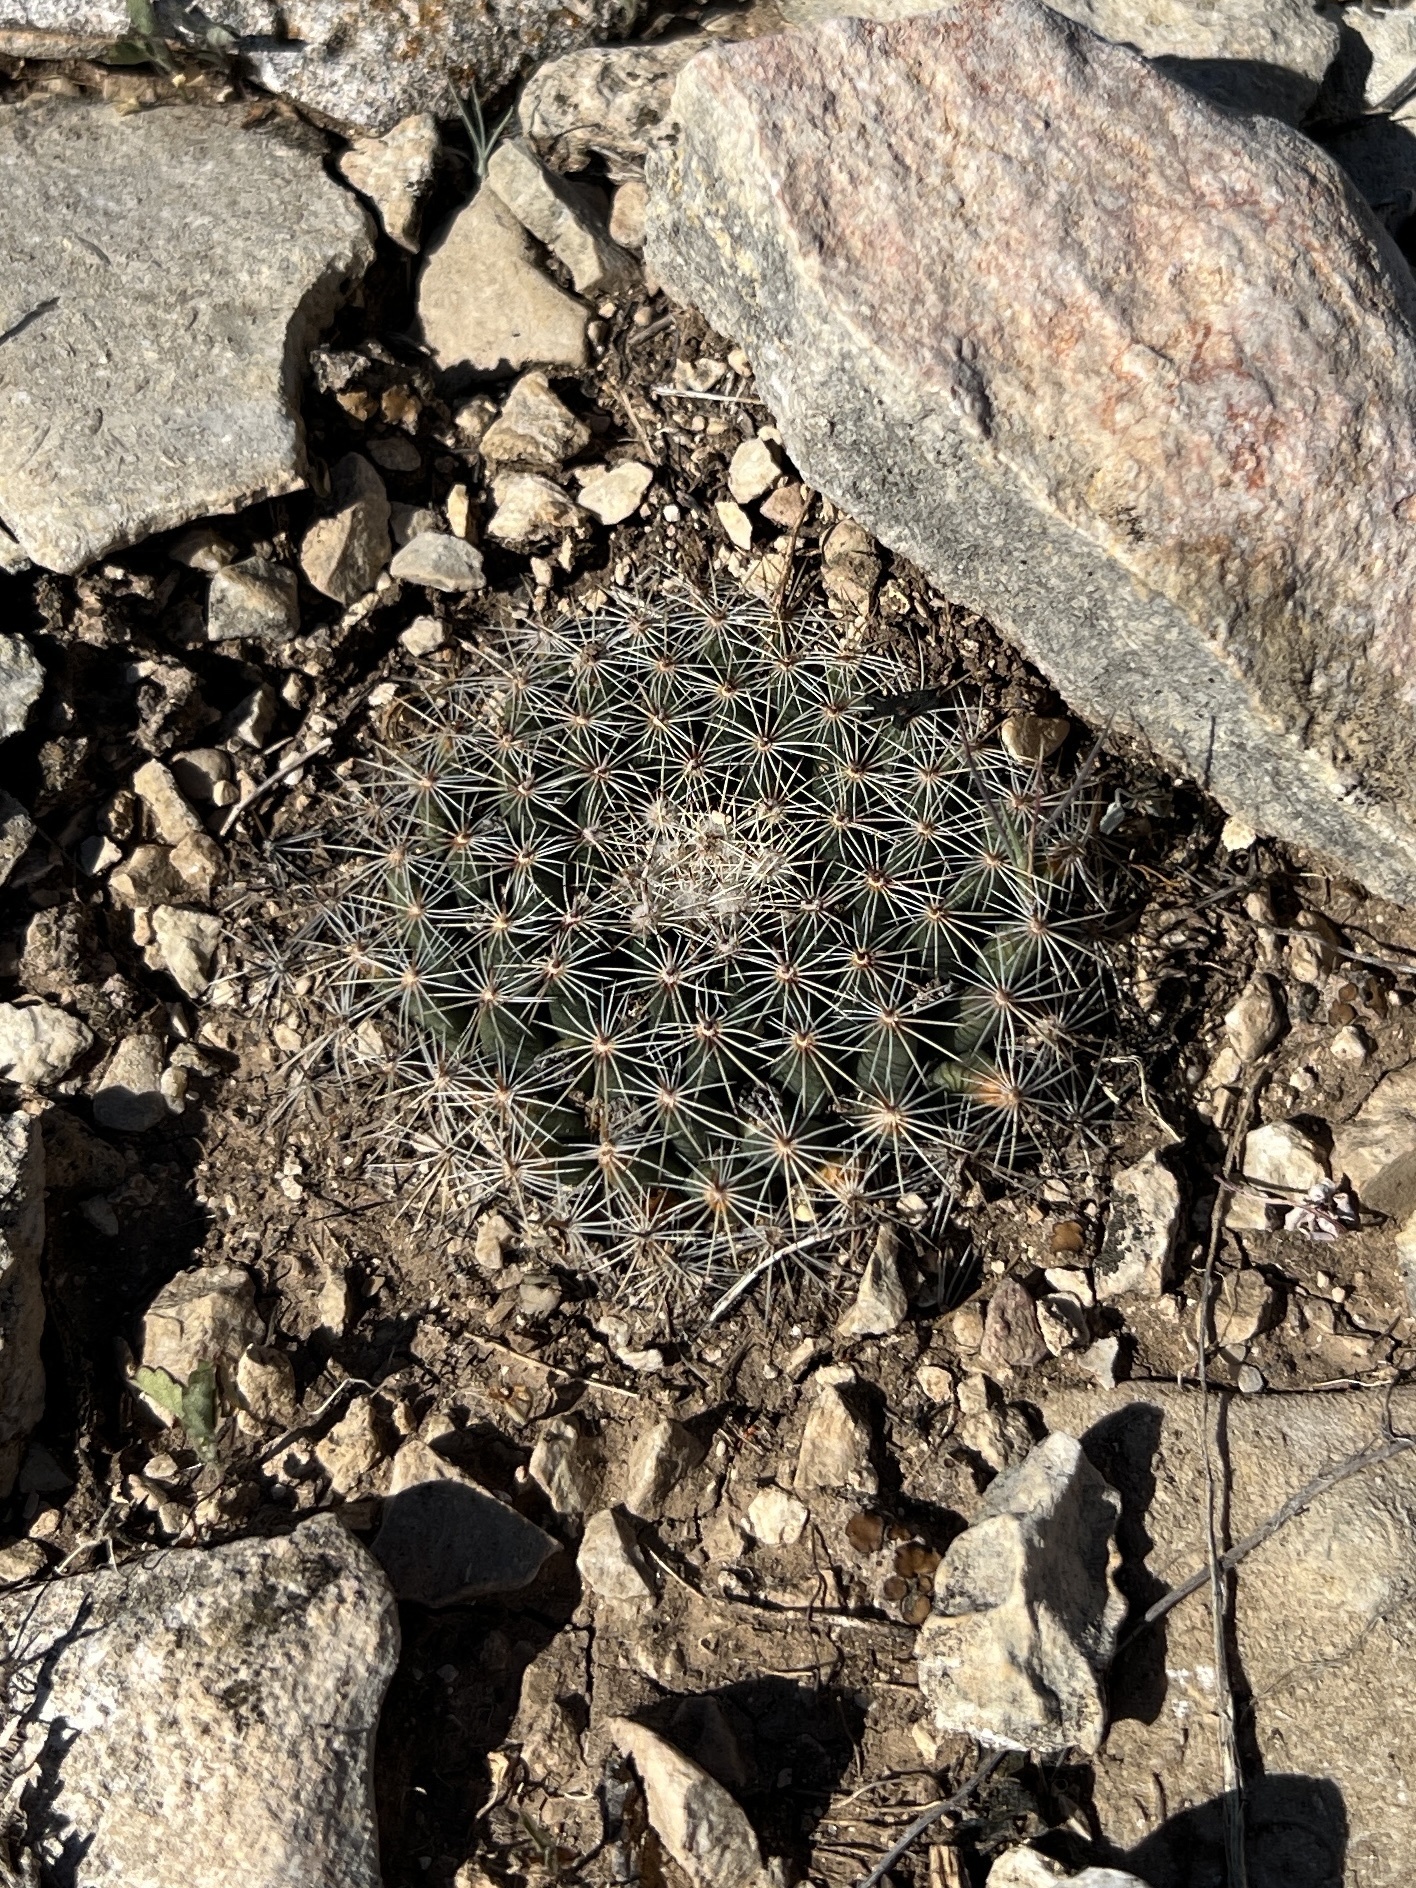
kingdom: Plantae
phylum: Tracheophyta
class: Magnoliopsida
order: Caryophyllales
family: Cactaceae
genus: Mammillaria
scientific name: Mammillaria heyderi
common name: Little nipple cactus
